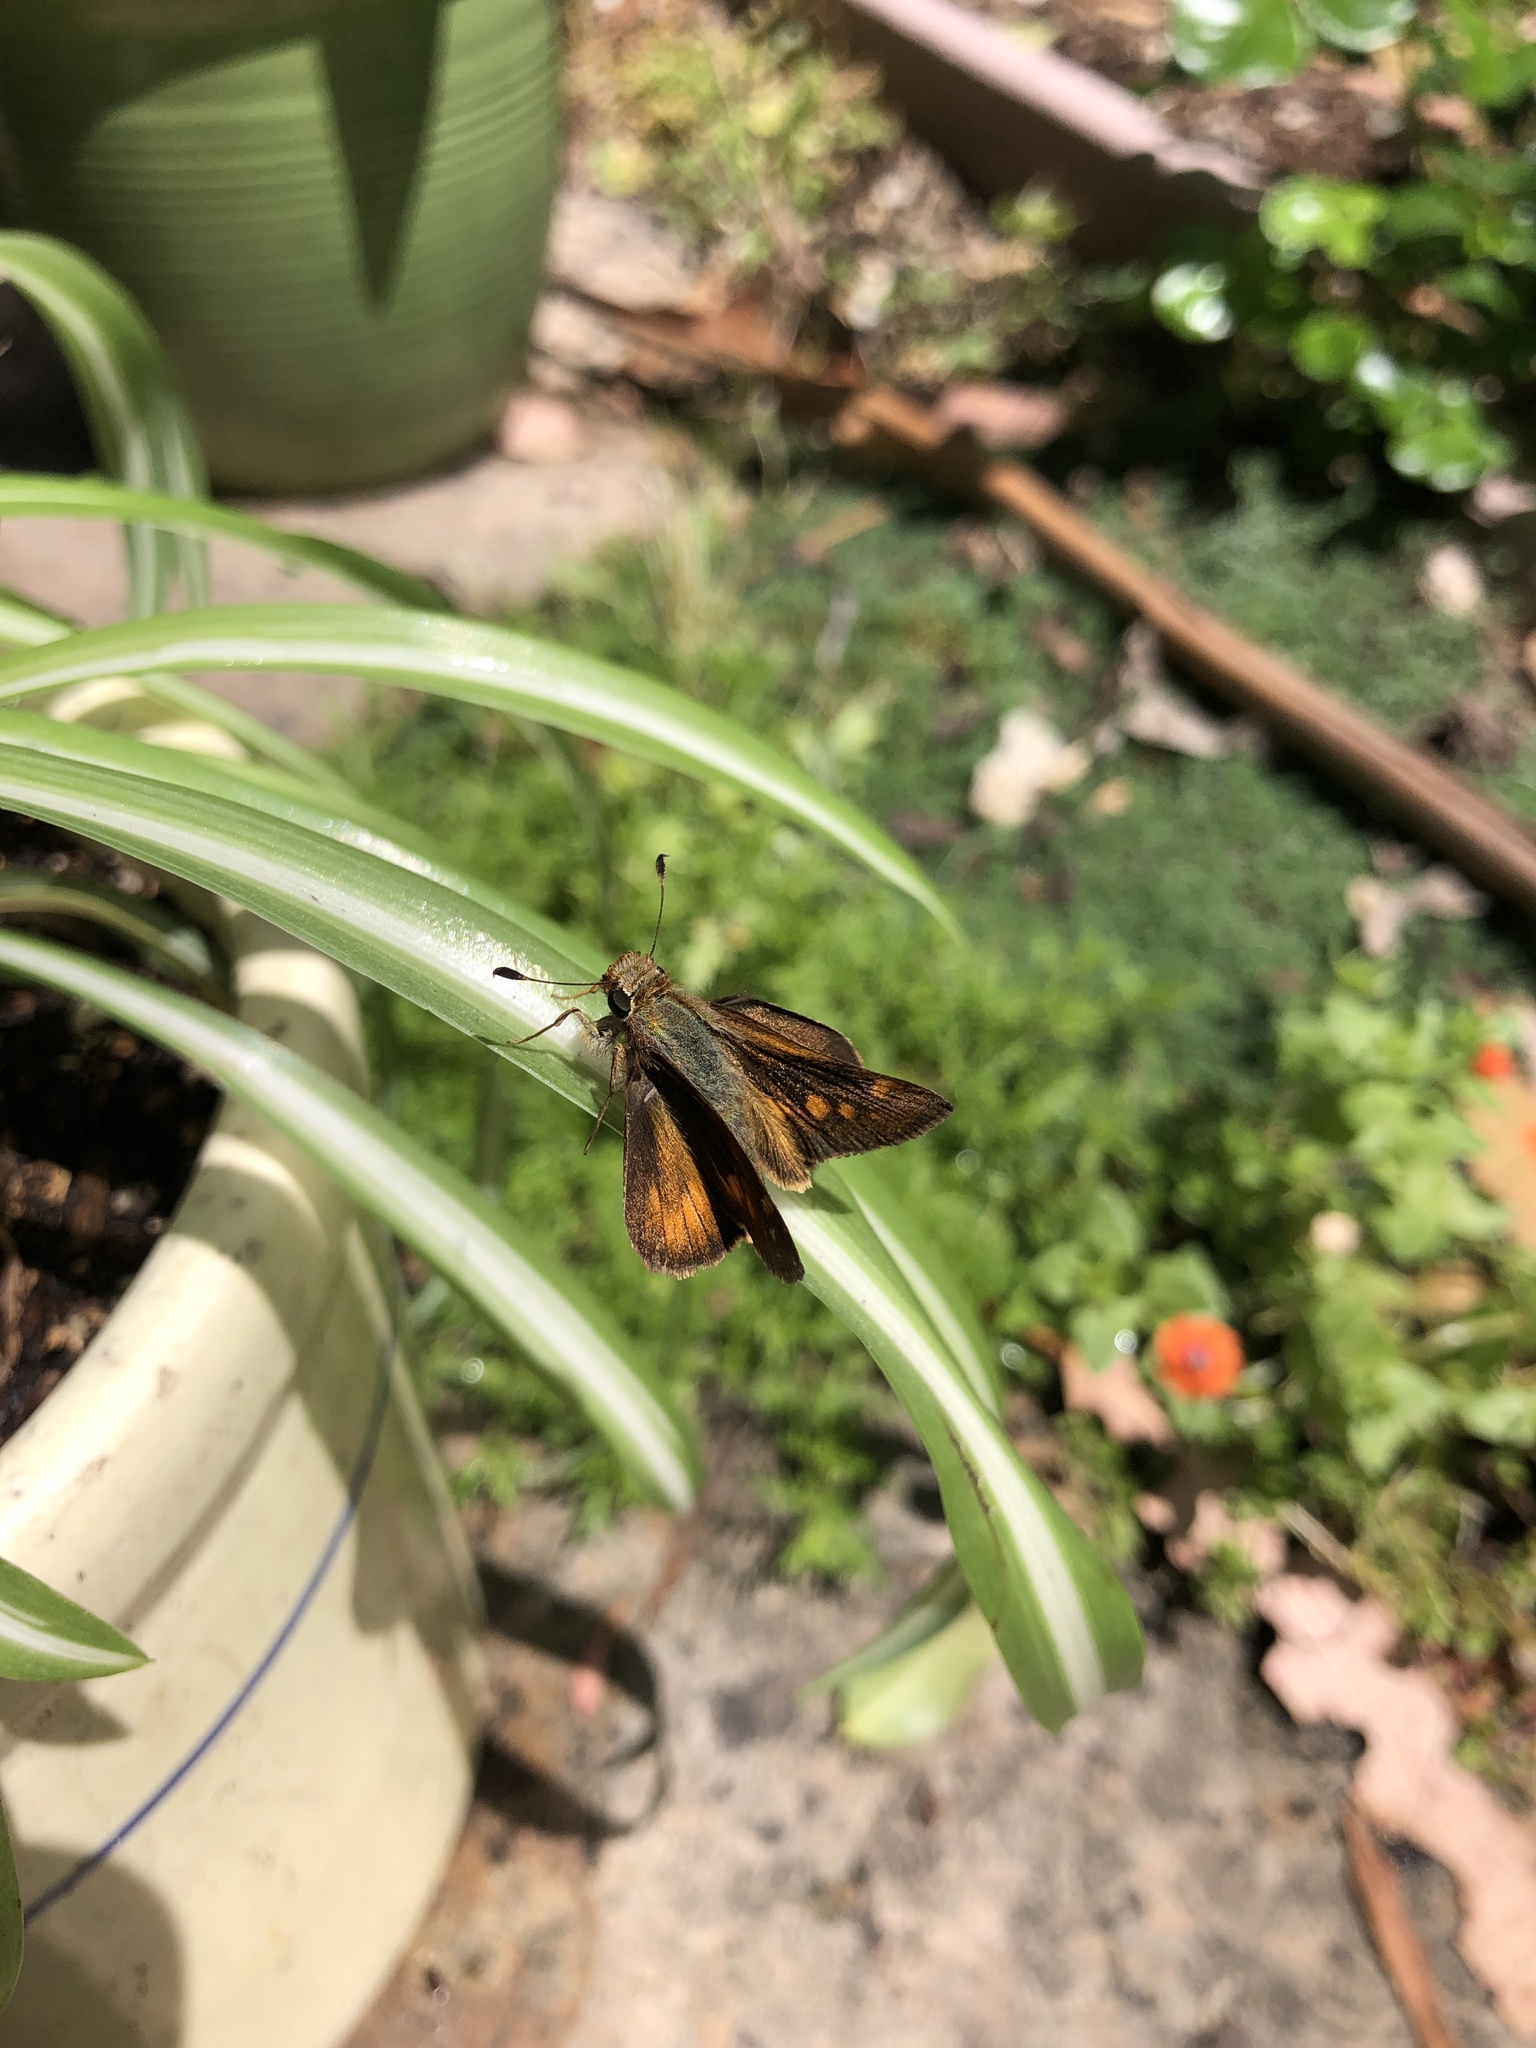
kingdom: Animalia
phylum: Arthropoda
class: Insecta
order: Lepidoptera
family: Hesperiidae
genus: Lon
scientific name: Lon melane
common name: Umber skipper
